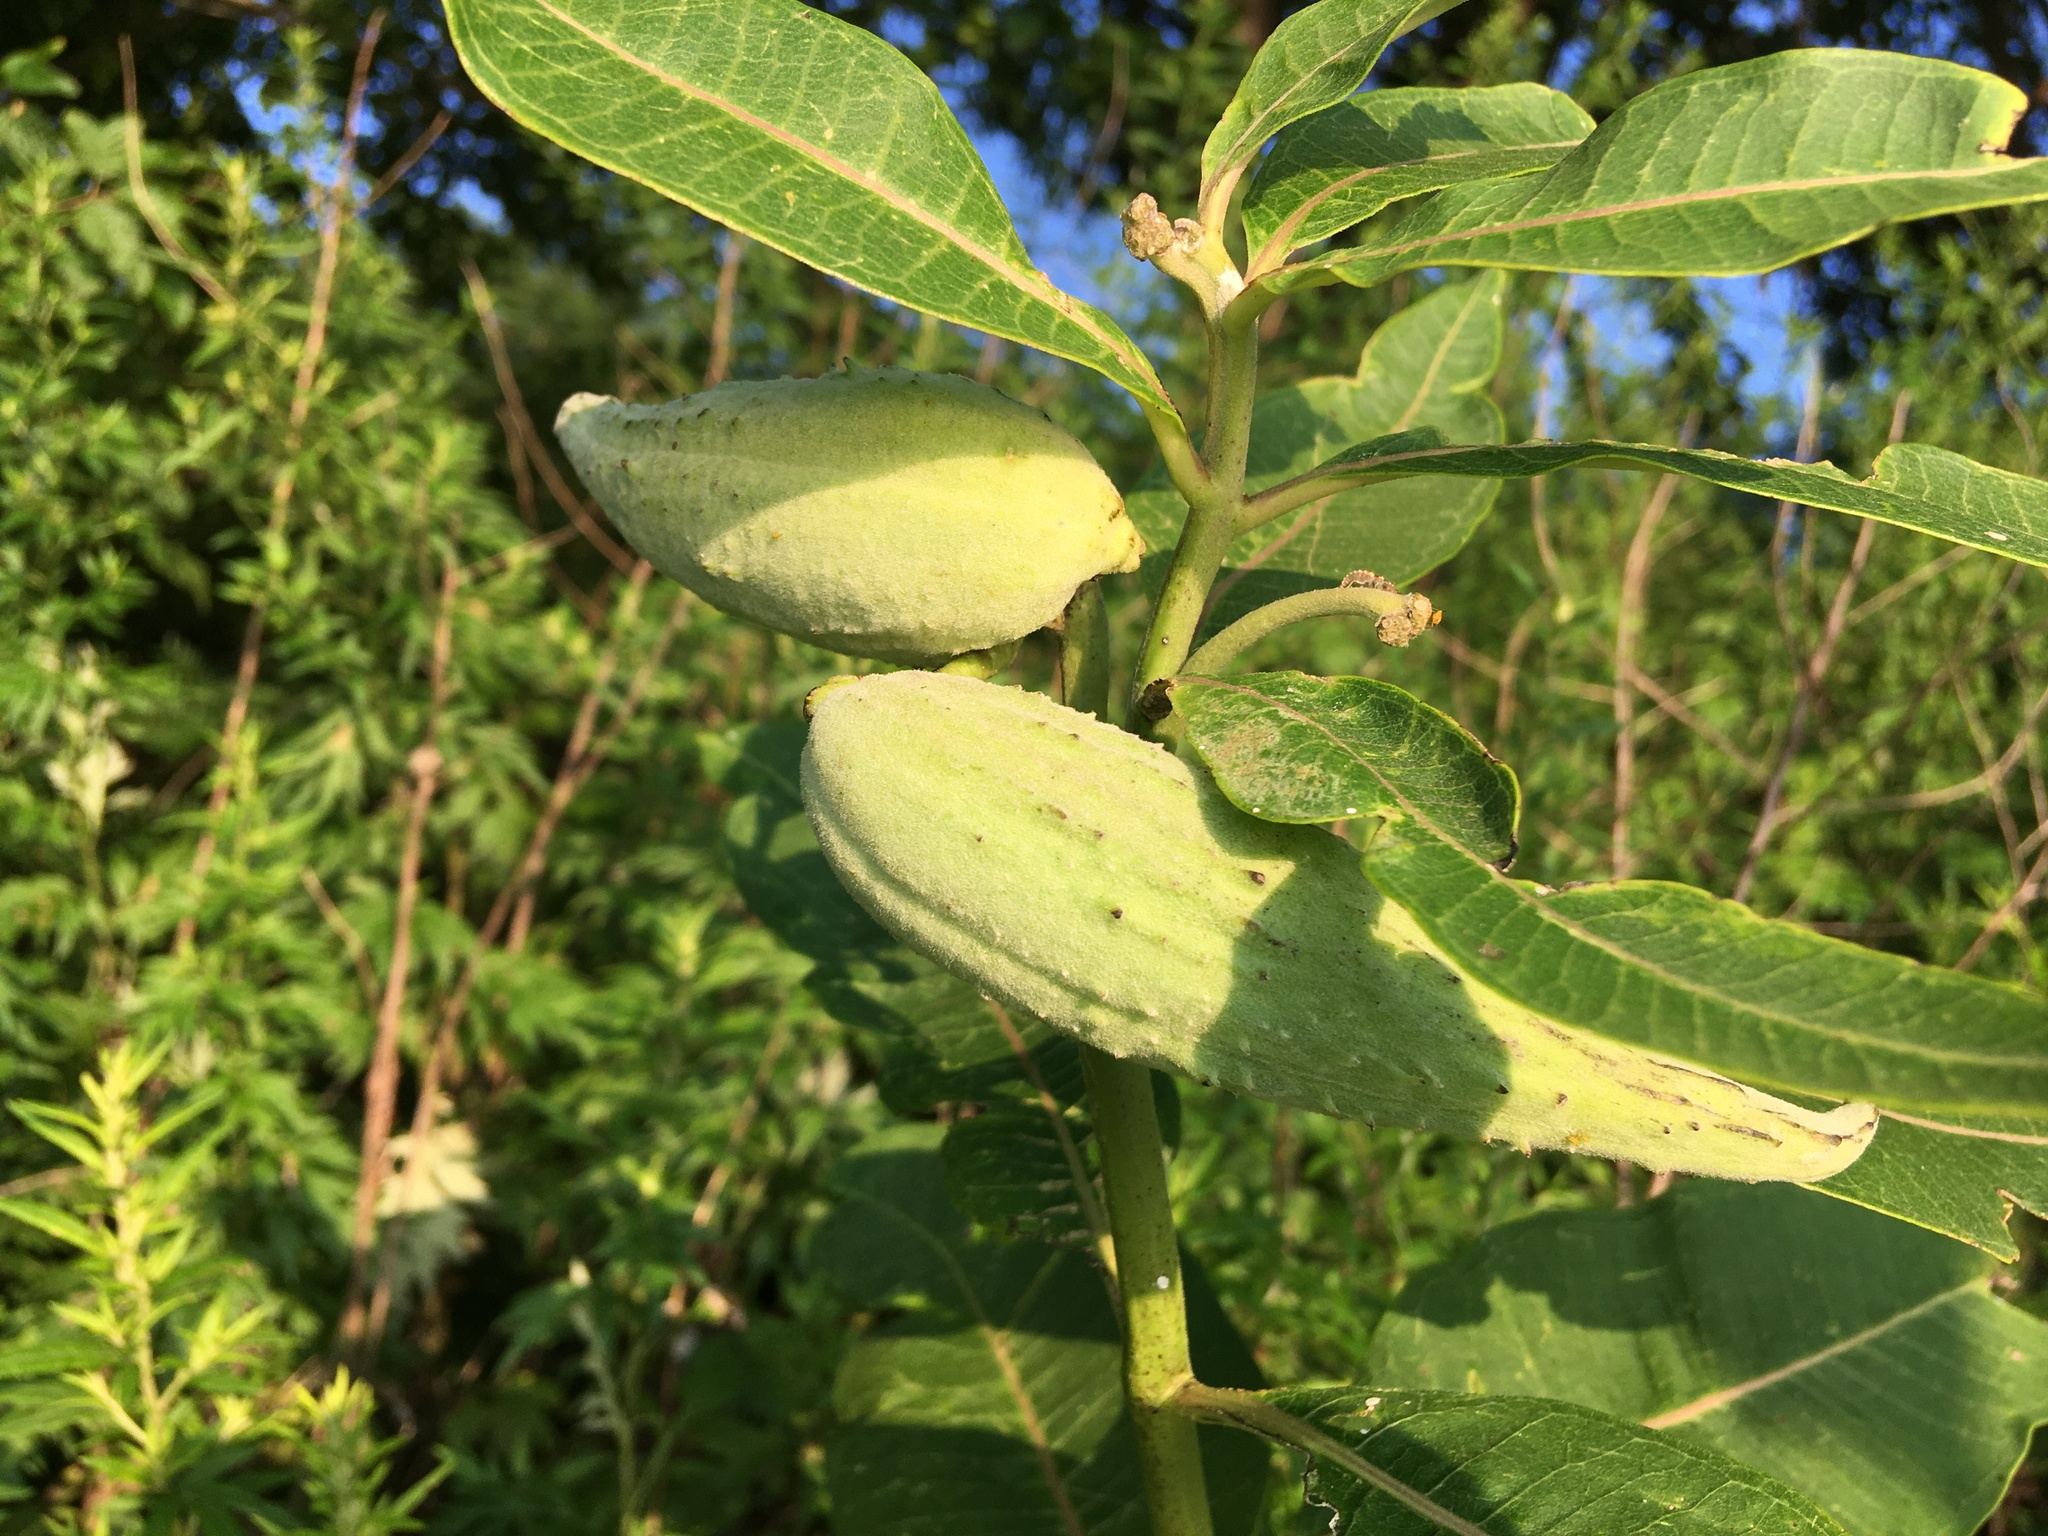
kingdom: Plantae
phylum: Tracheophyta
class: Magnoliopsida
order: Gentianales
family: Apocynaceae
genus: Asclepias
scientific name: Asclepias syriaca
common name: Common milkweed
